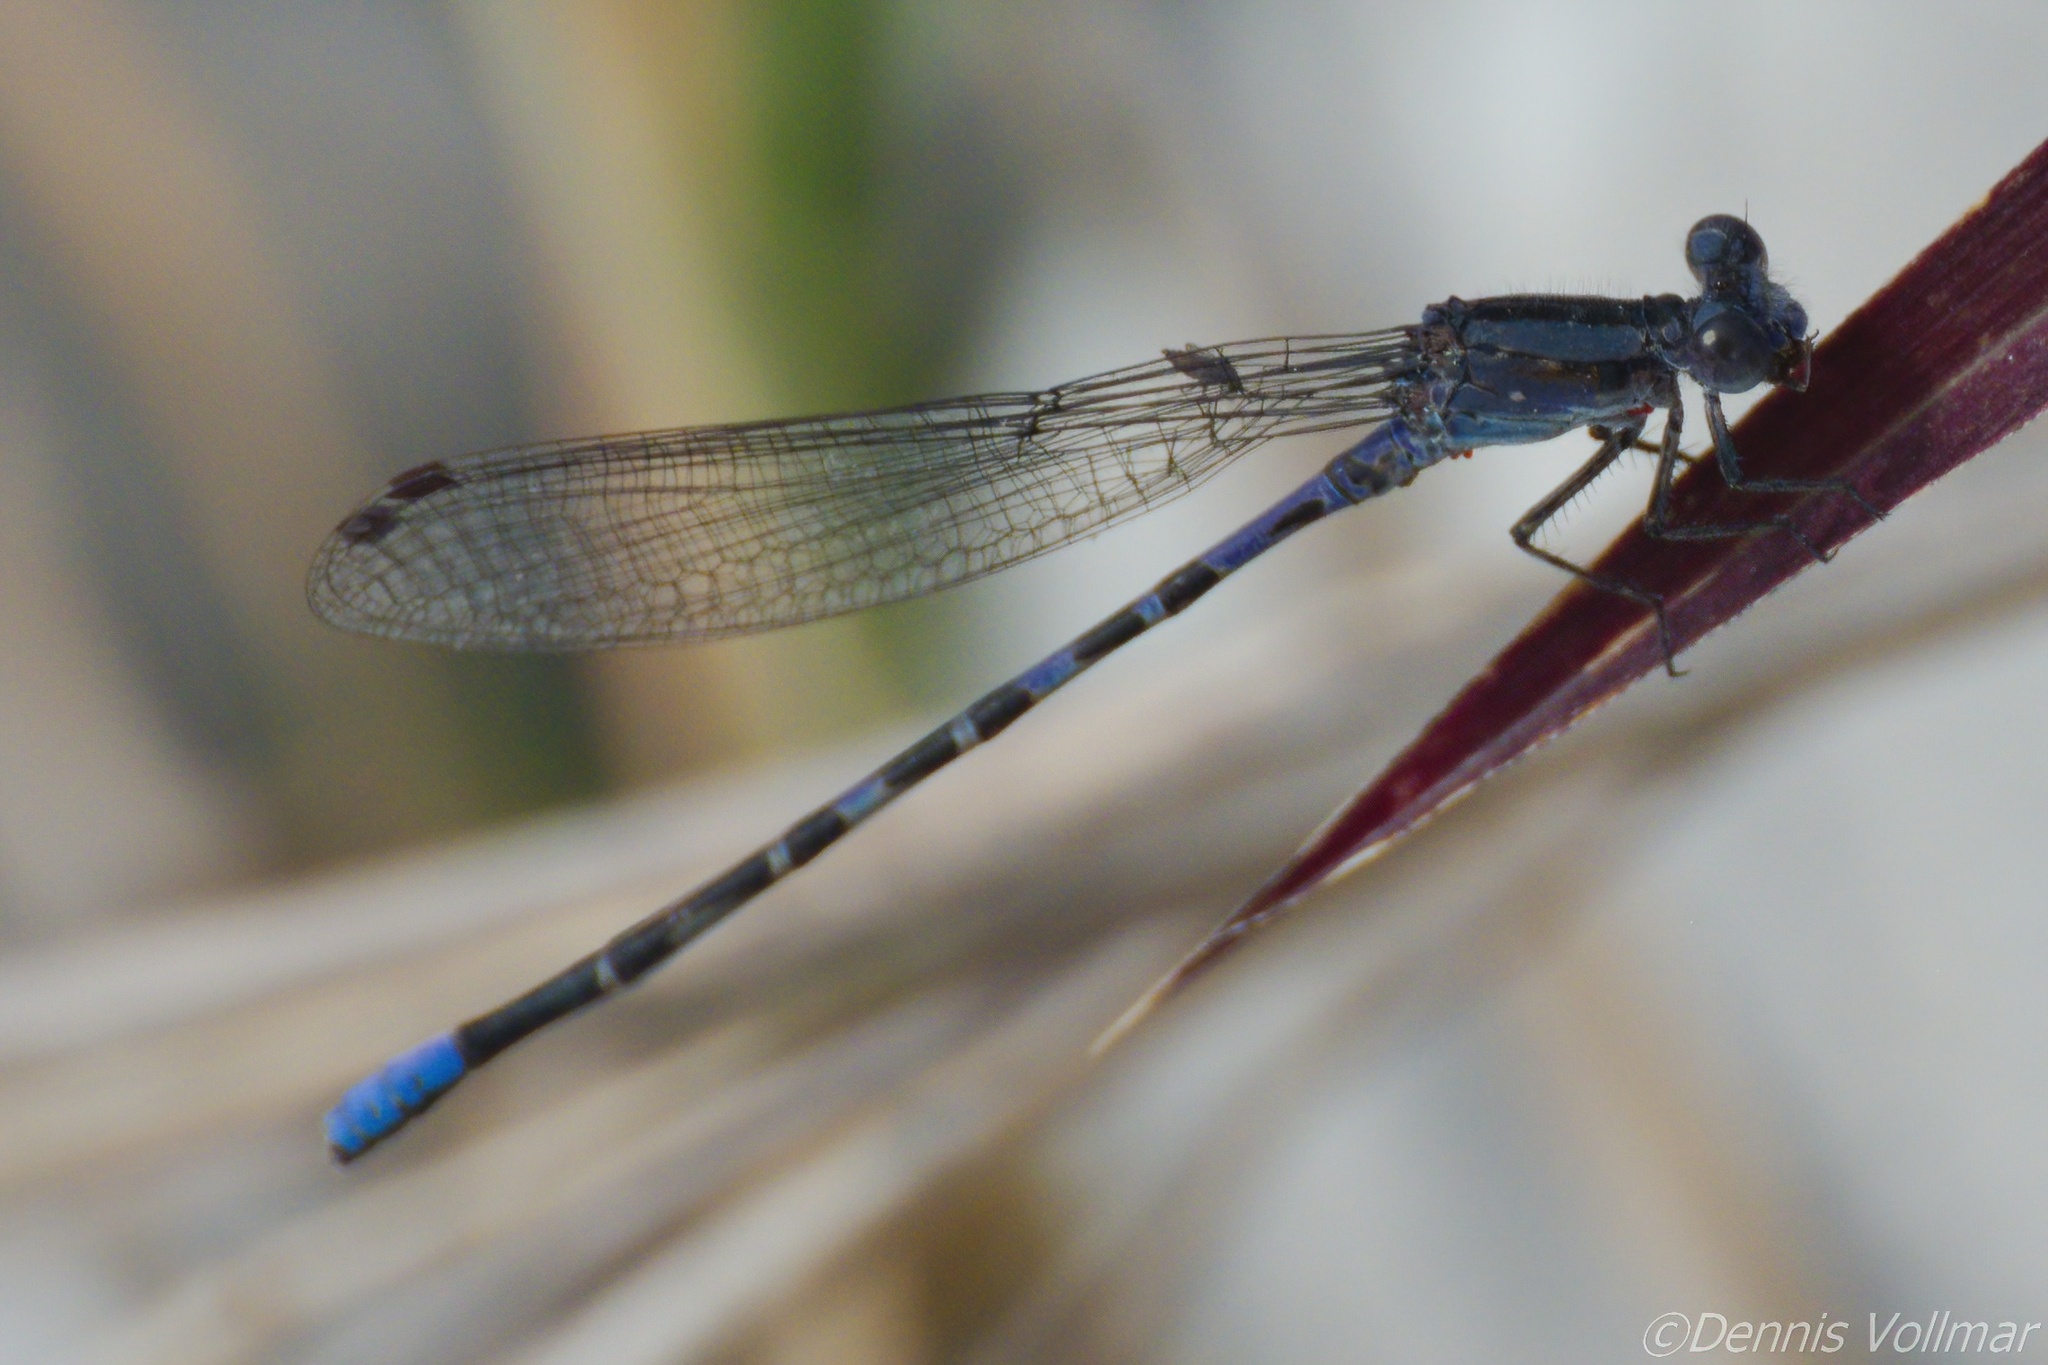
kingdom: Animalia
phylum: Arthropoda
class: Insecta
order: Odonata
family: Coenagrionidae
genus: Argia
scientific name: Argia immunda
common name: Kiowa dancer
